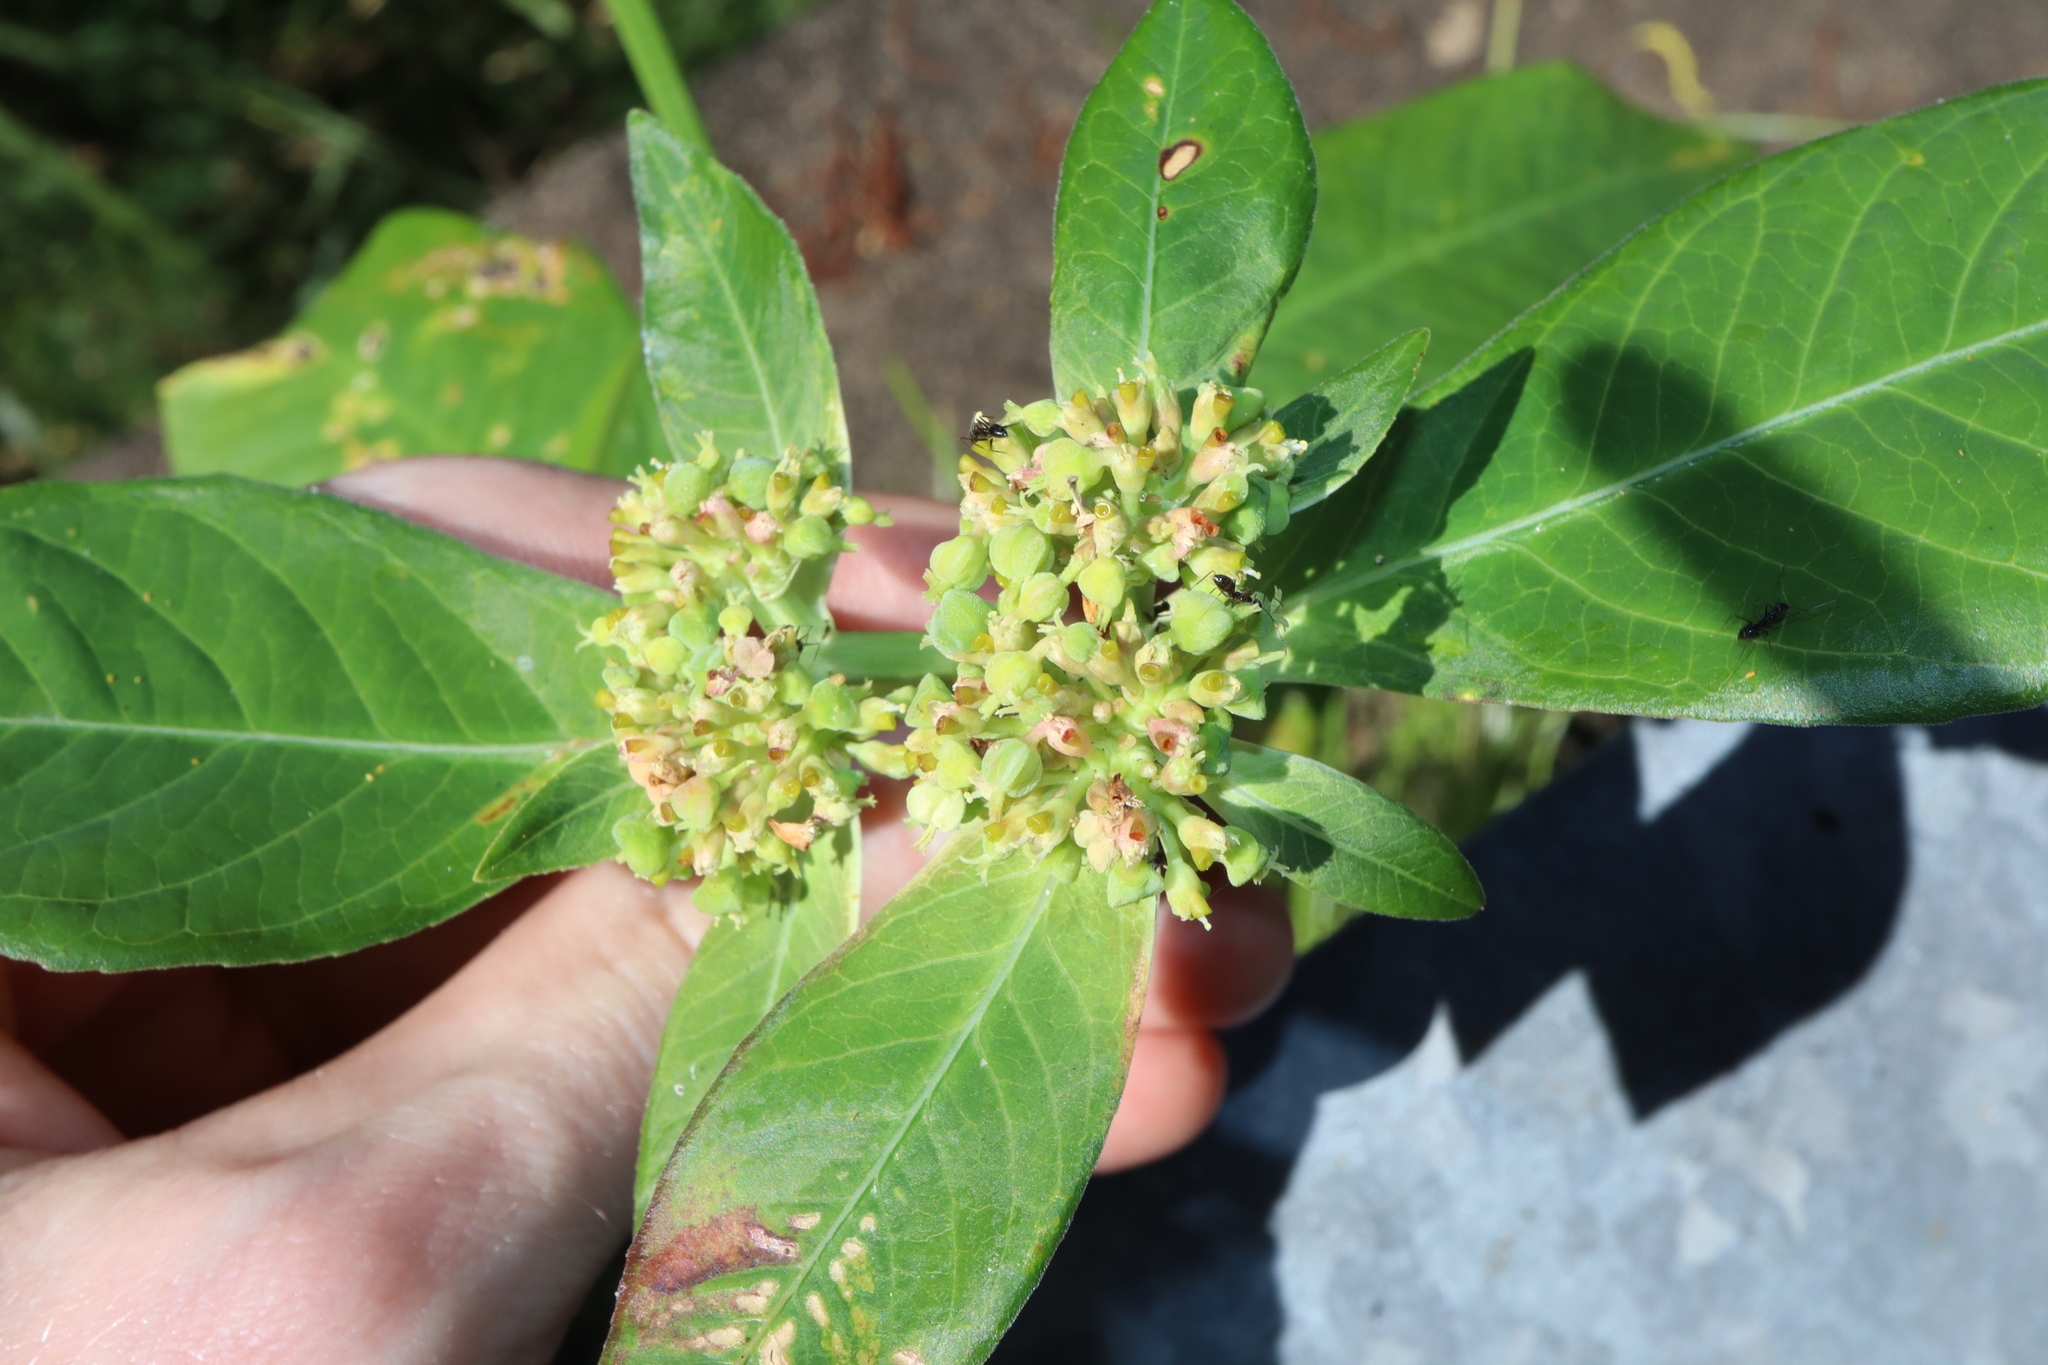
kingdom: Plantae
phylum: Tracheophyta
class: Magnoliopsida
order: Malpighiales
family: Euphorbiaceae
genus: Euphorbia
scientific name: Euphorbia heterophylla
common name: Mexican fireplant
